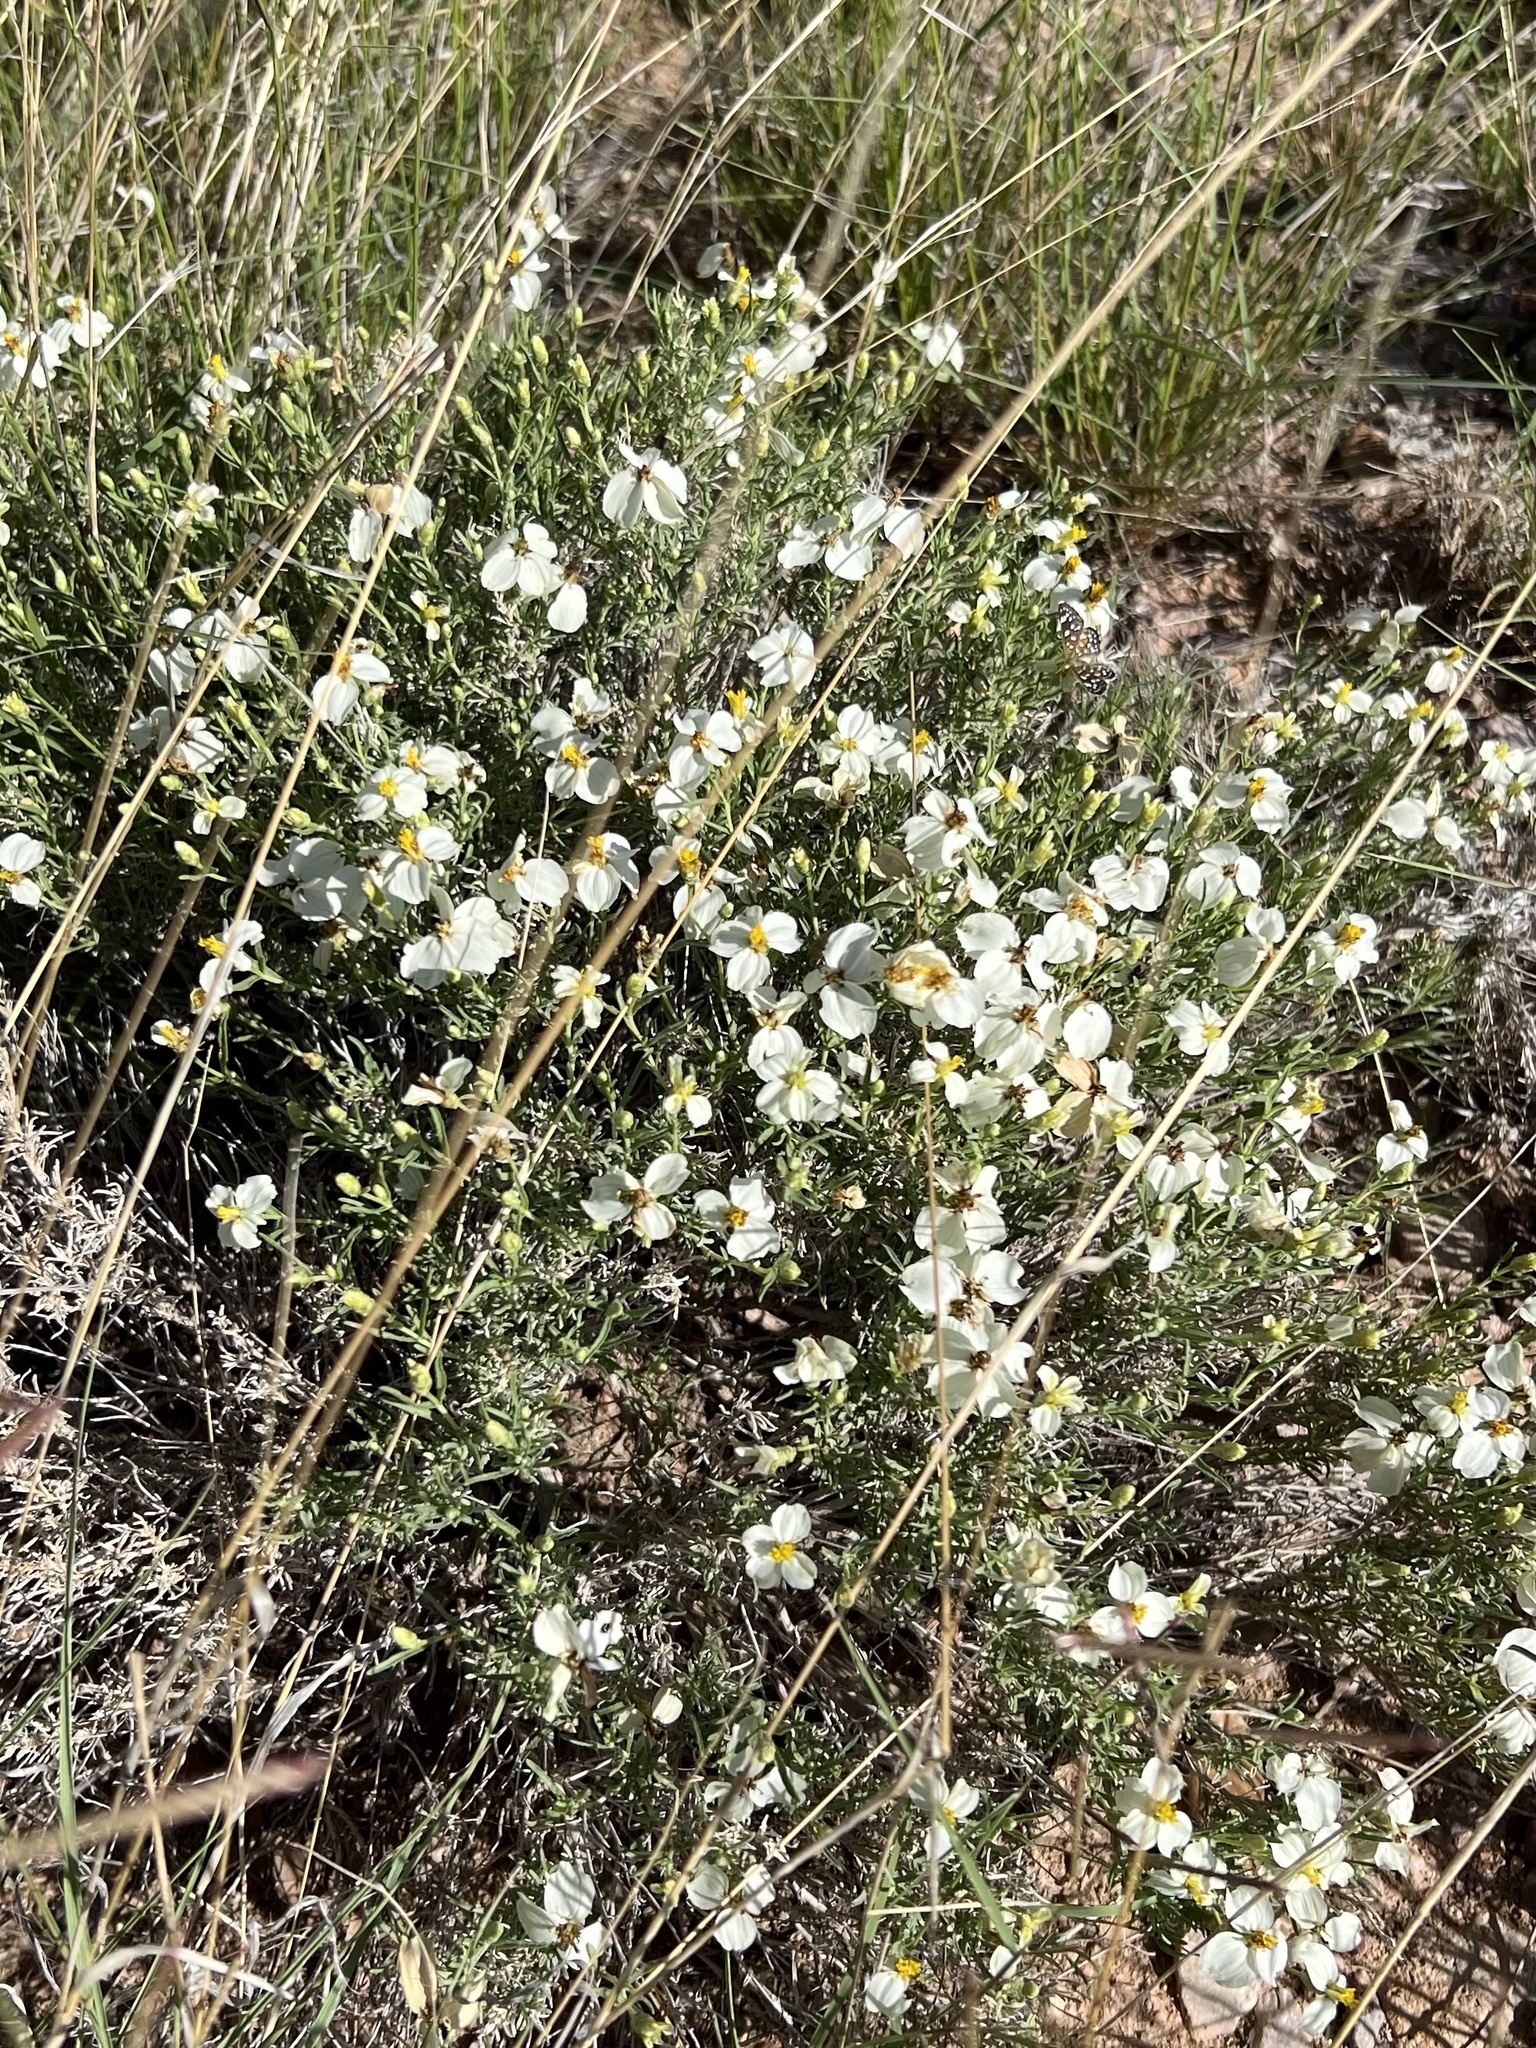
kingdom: Plantae
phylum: Tracheophyta
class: Magnoliopsida
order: Asterales
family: Asteraceae
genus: Zinnia
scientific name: Zinnia acerosa
